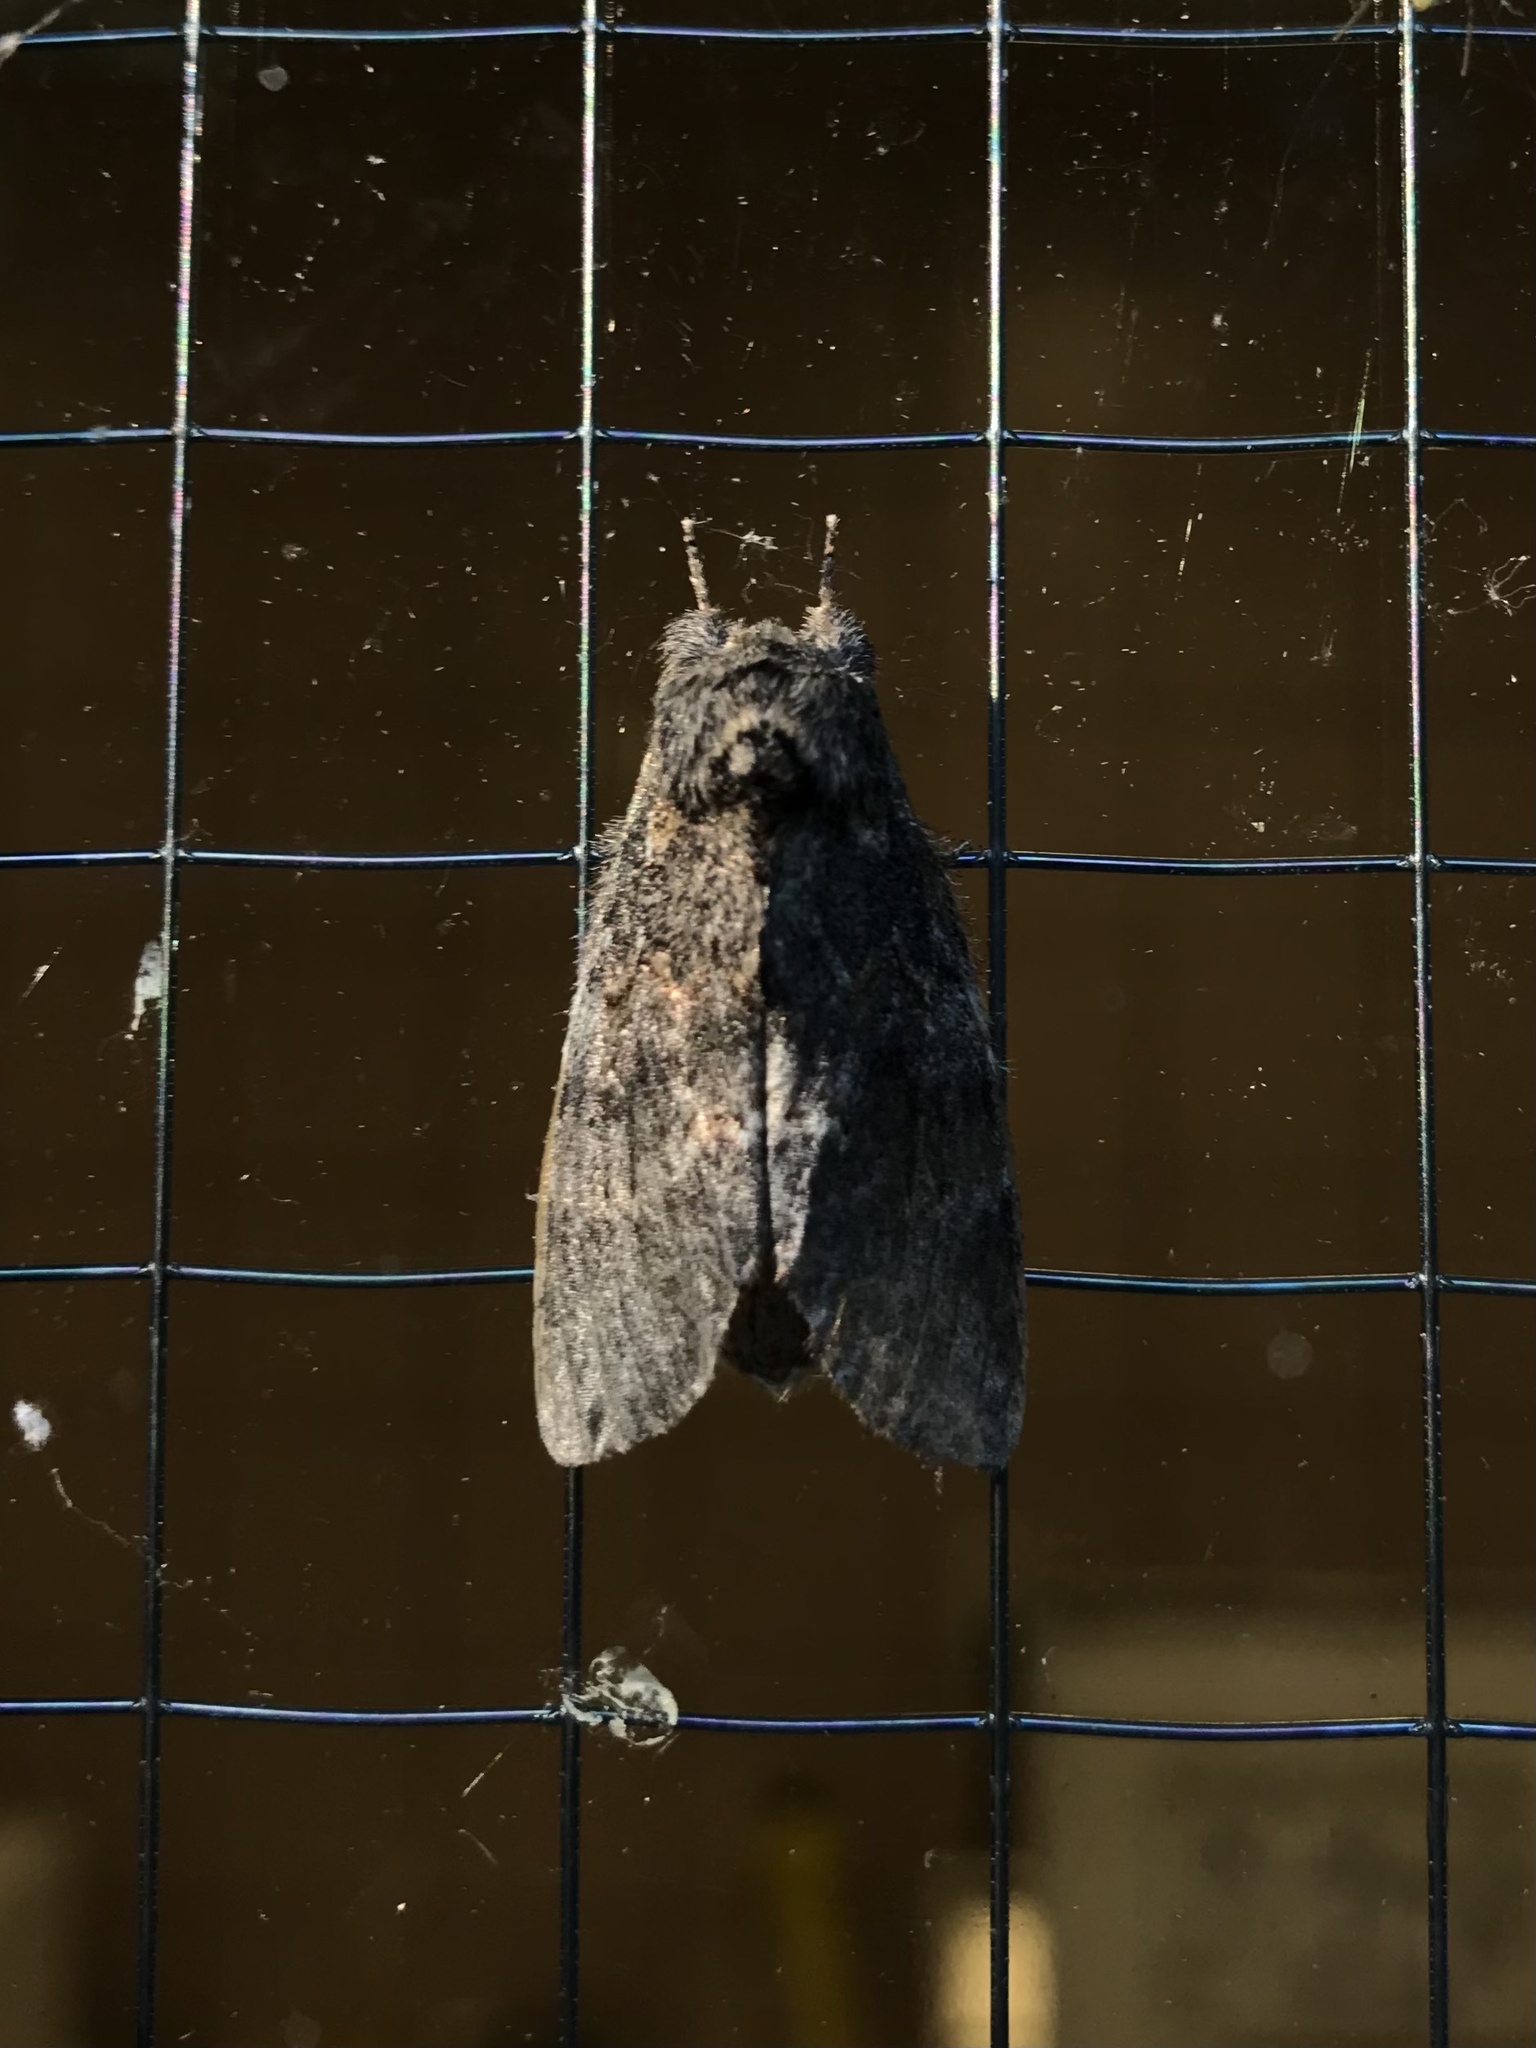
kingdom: Animalia
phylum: Arthropoda
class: Insecta
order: Lepidoptera
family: Notodontidae
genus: Peridea
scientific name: Peridea angulosa
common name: Angulose prominent
